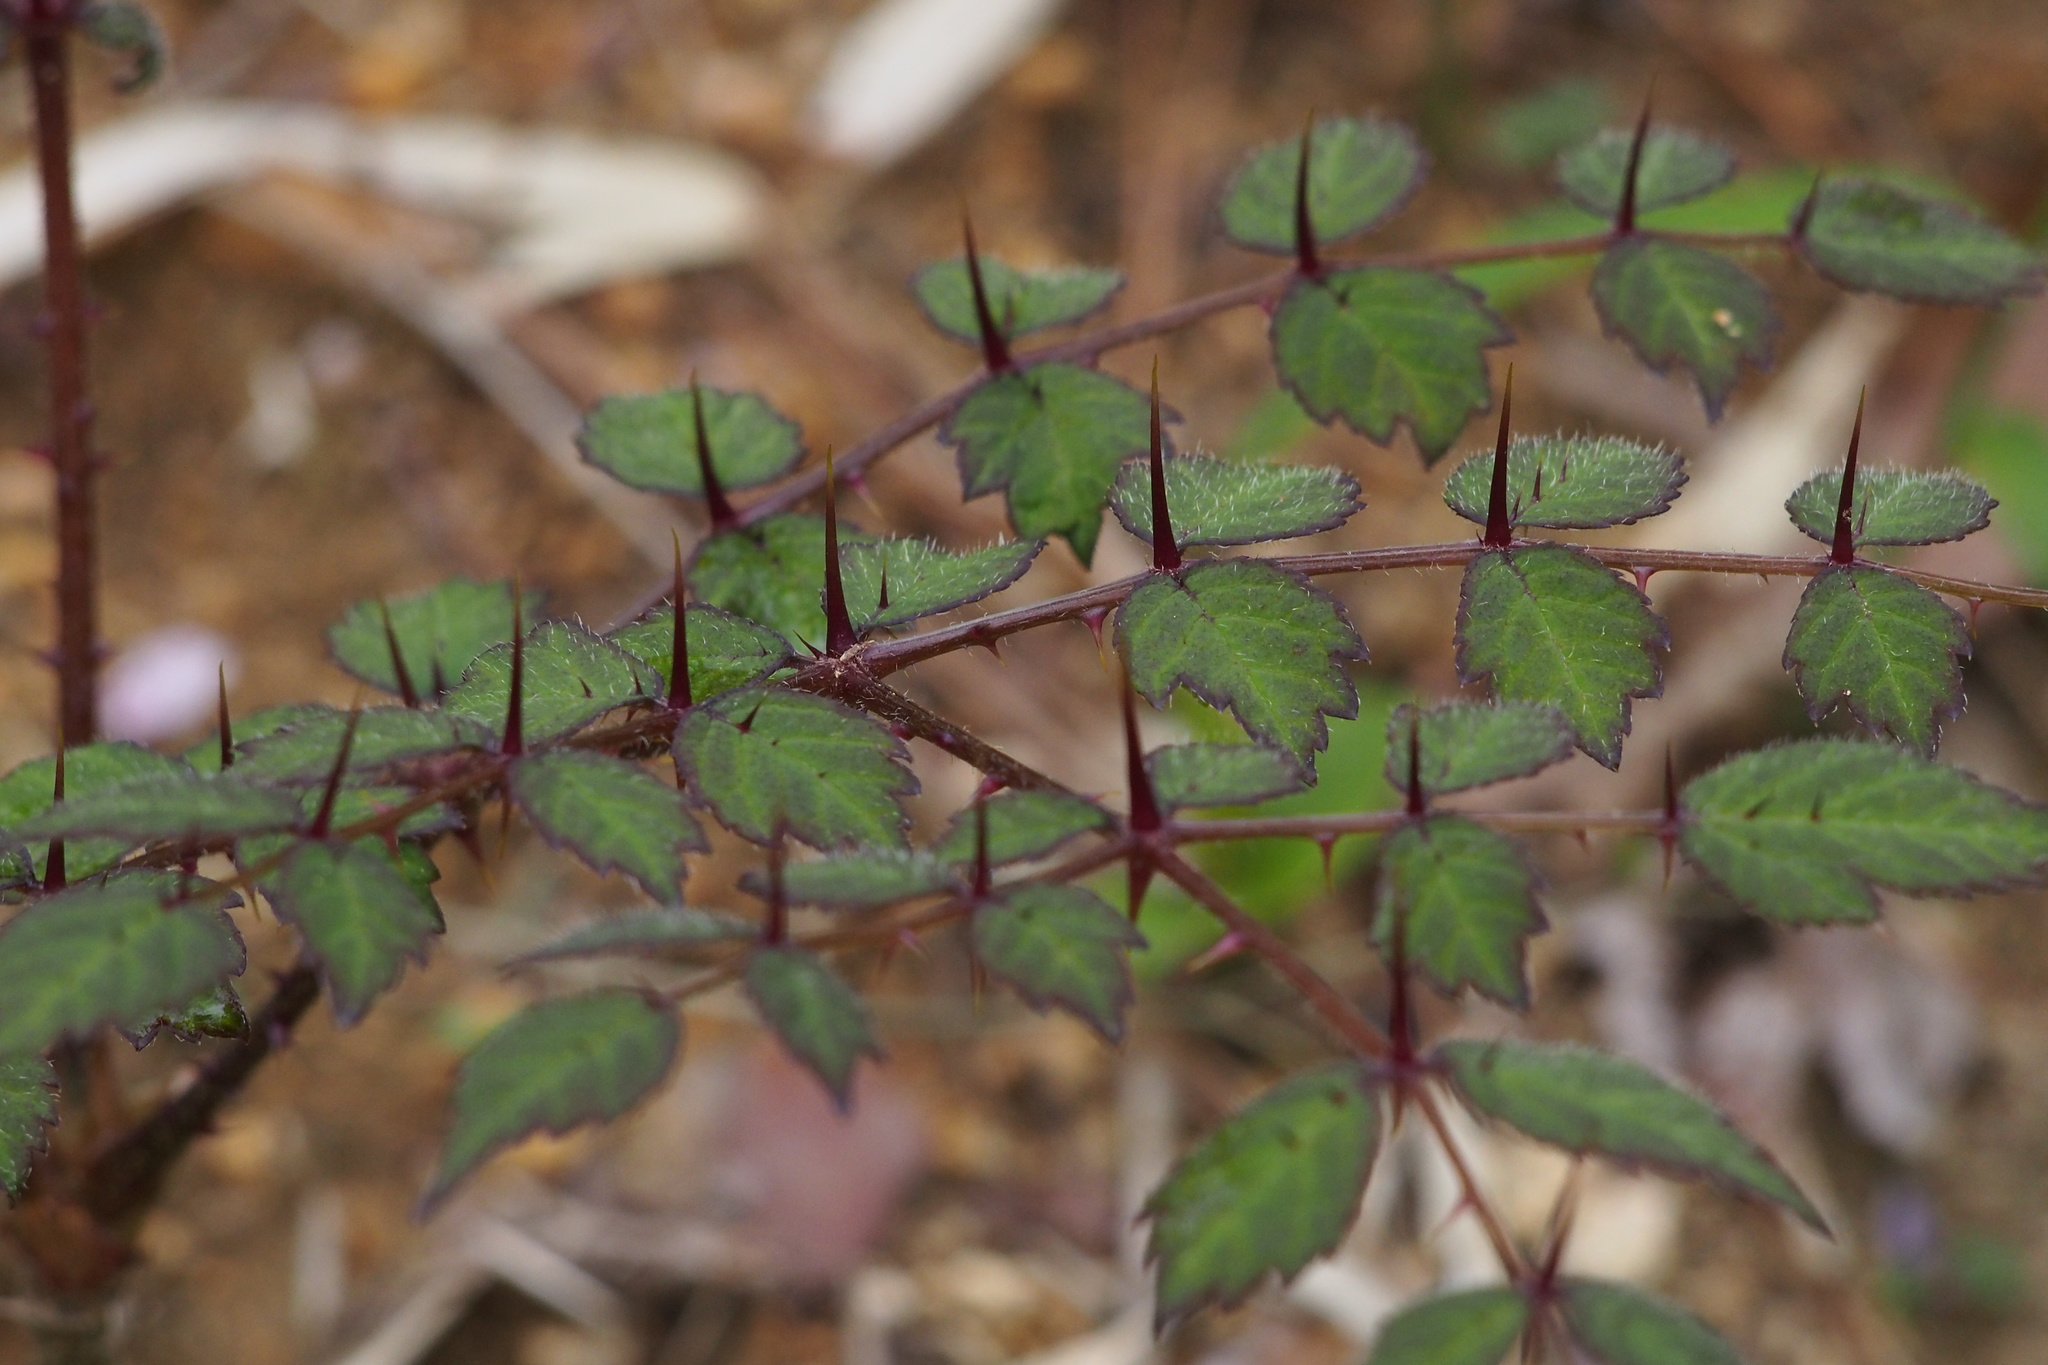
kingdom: Plantae
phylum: Tracheophyta
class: Magnoliopsida
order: Apiales
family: Araliaceae
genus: Aralia
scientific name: Aralia elata
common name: Japanese angelica-tree
